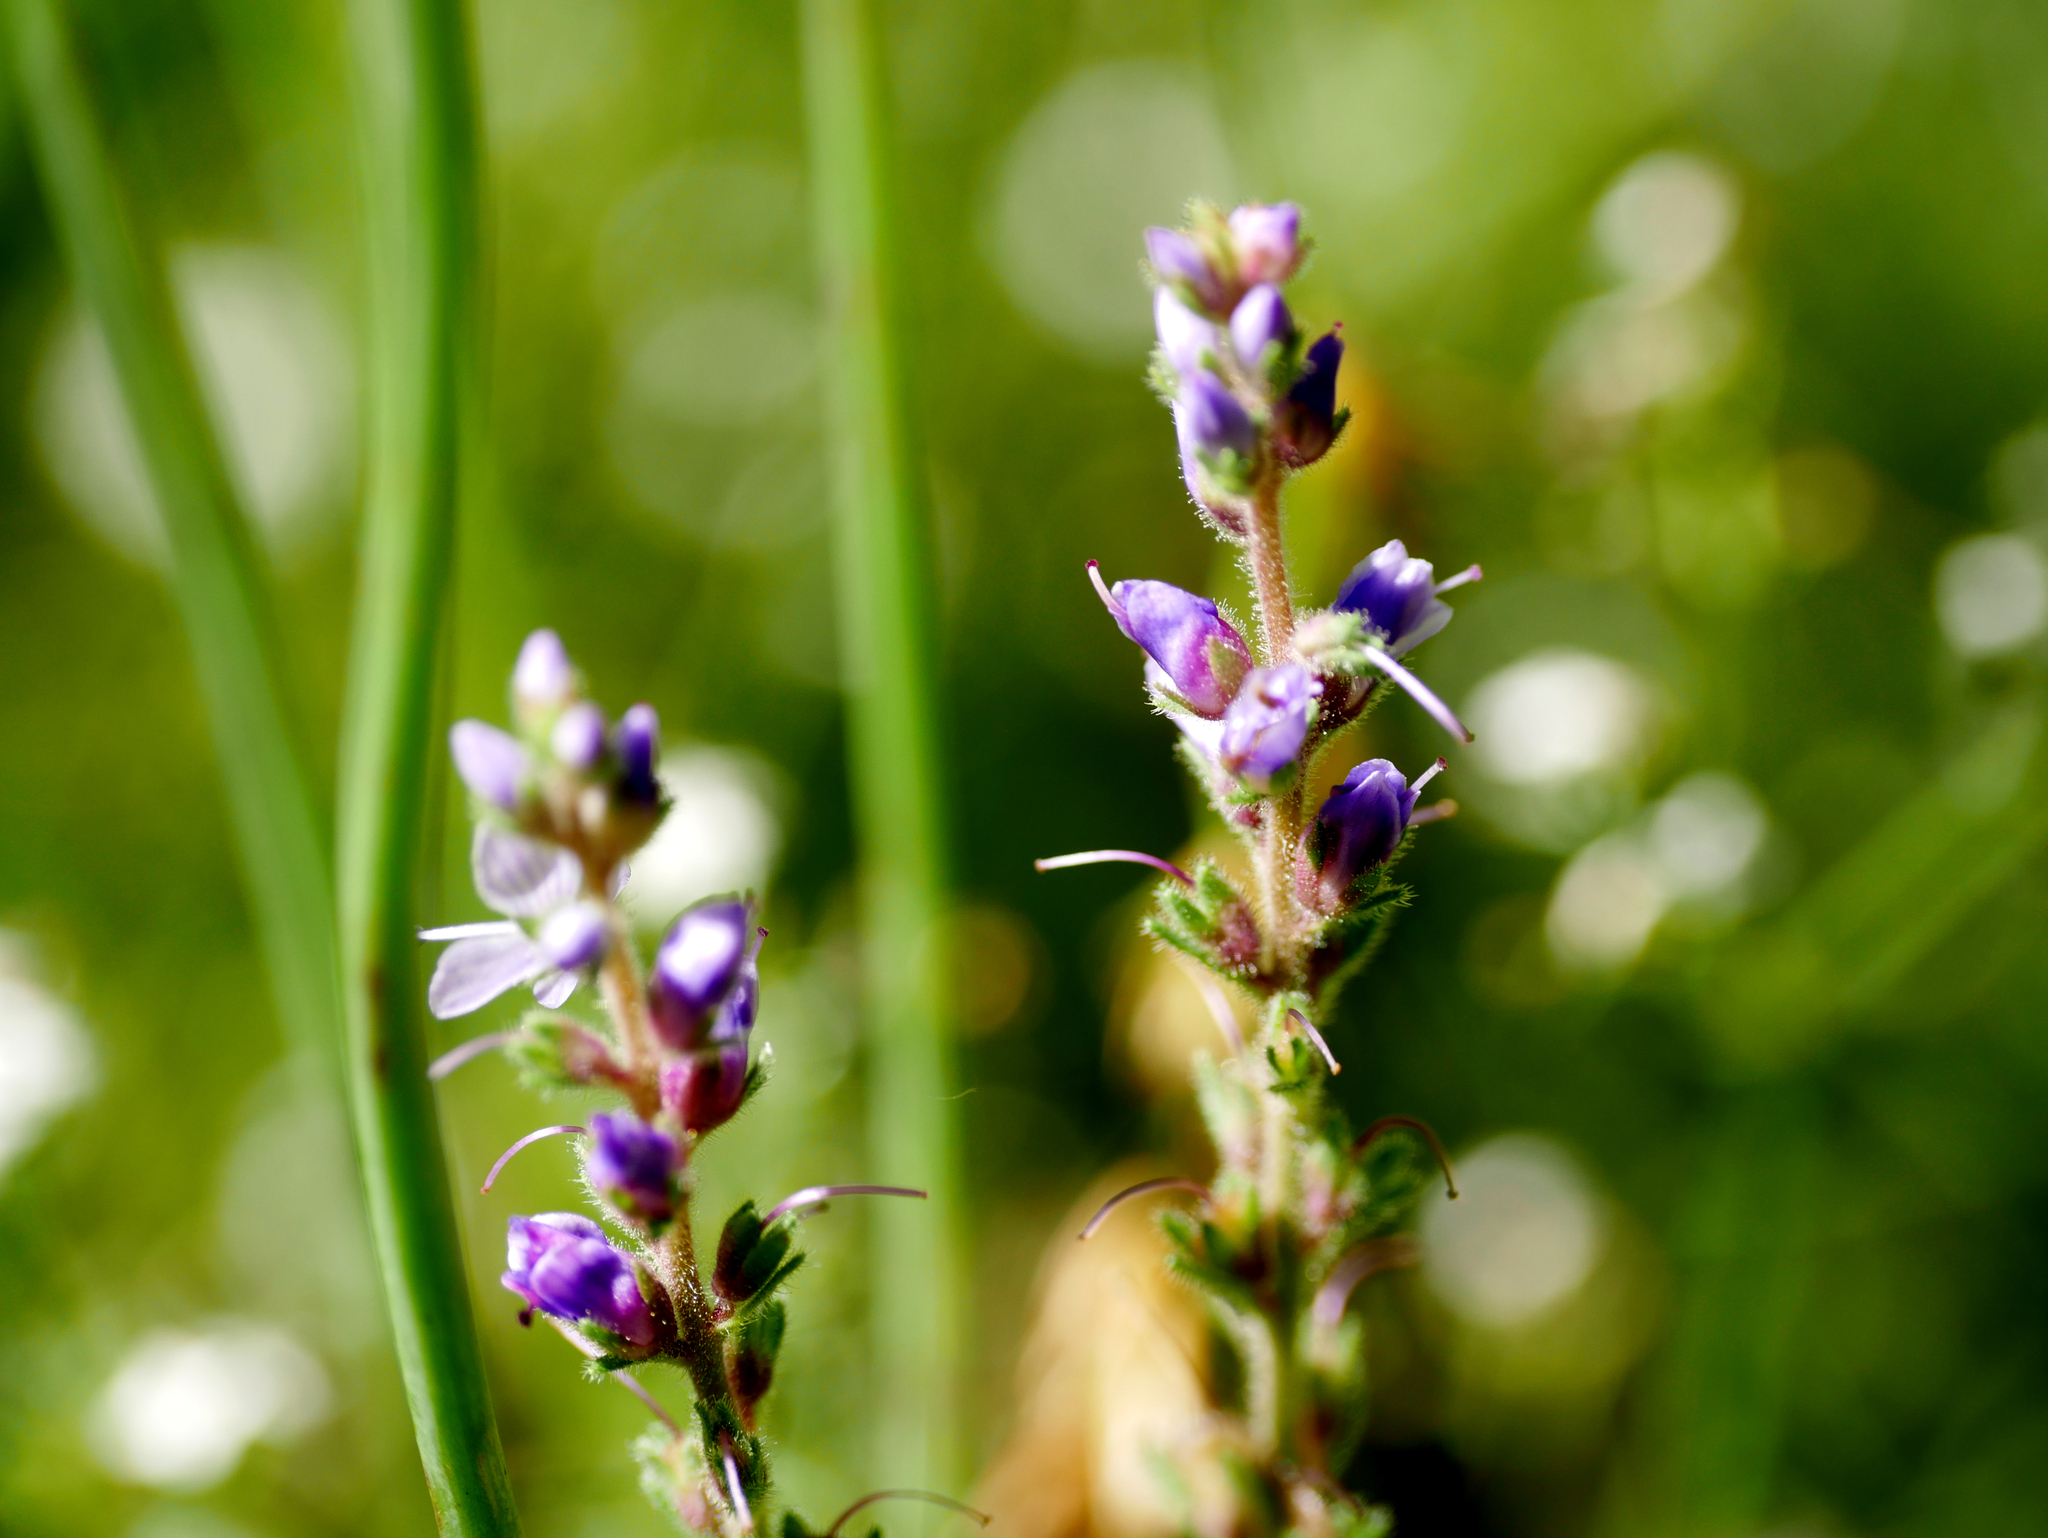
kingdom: Plantae
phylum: Tracheophyta
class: Magnoliopsida
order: Lamiales
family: Plantaginaceae
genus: Veronica
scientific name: Veronica officinalis
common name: Common speedwell
